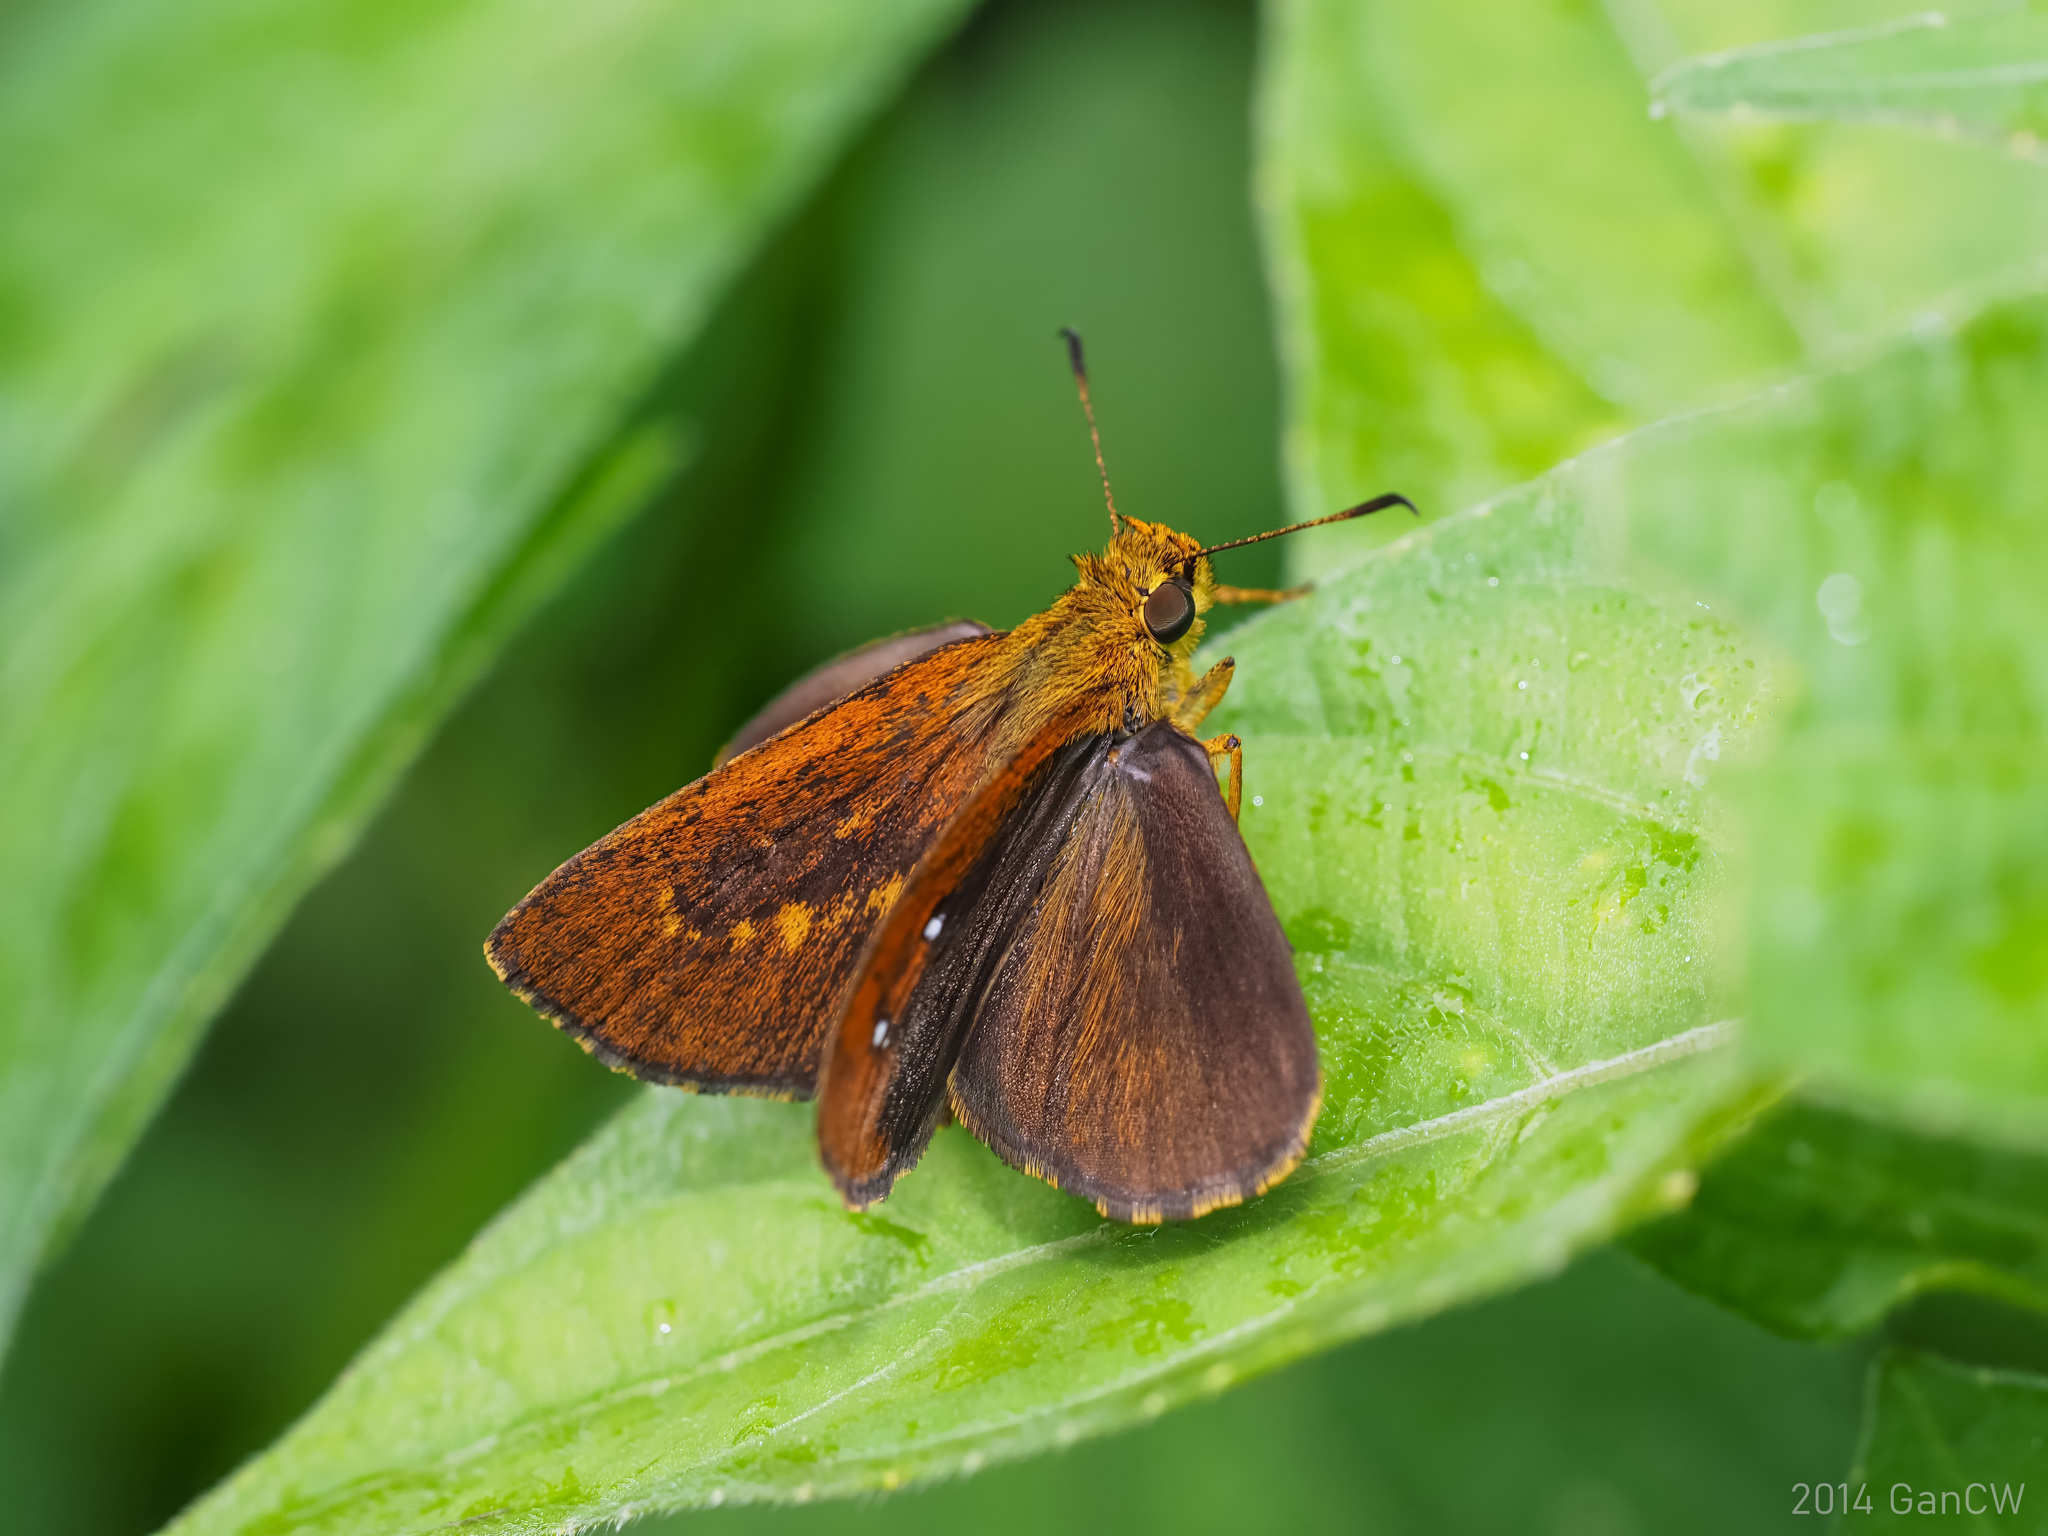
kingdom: Animalia
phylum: Arthropoda
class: Insecta
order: Lepidoptera
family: Hesperiidae
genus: Iambrix
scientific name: Iambrix salsala
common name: Chestnut bob
